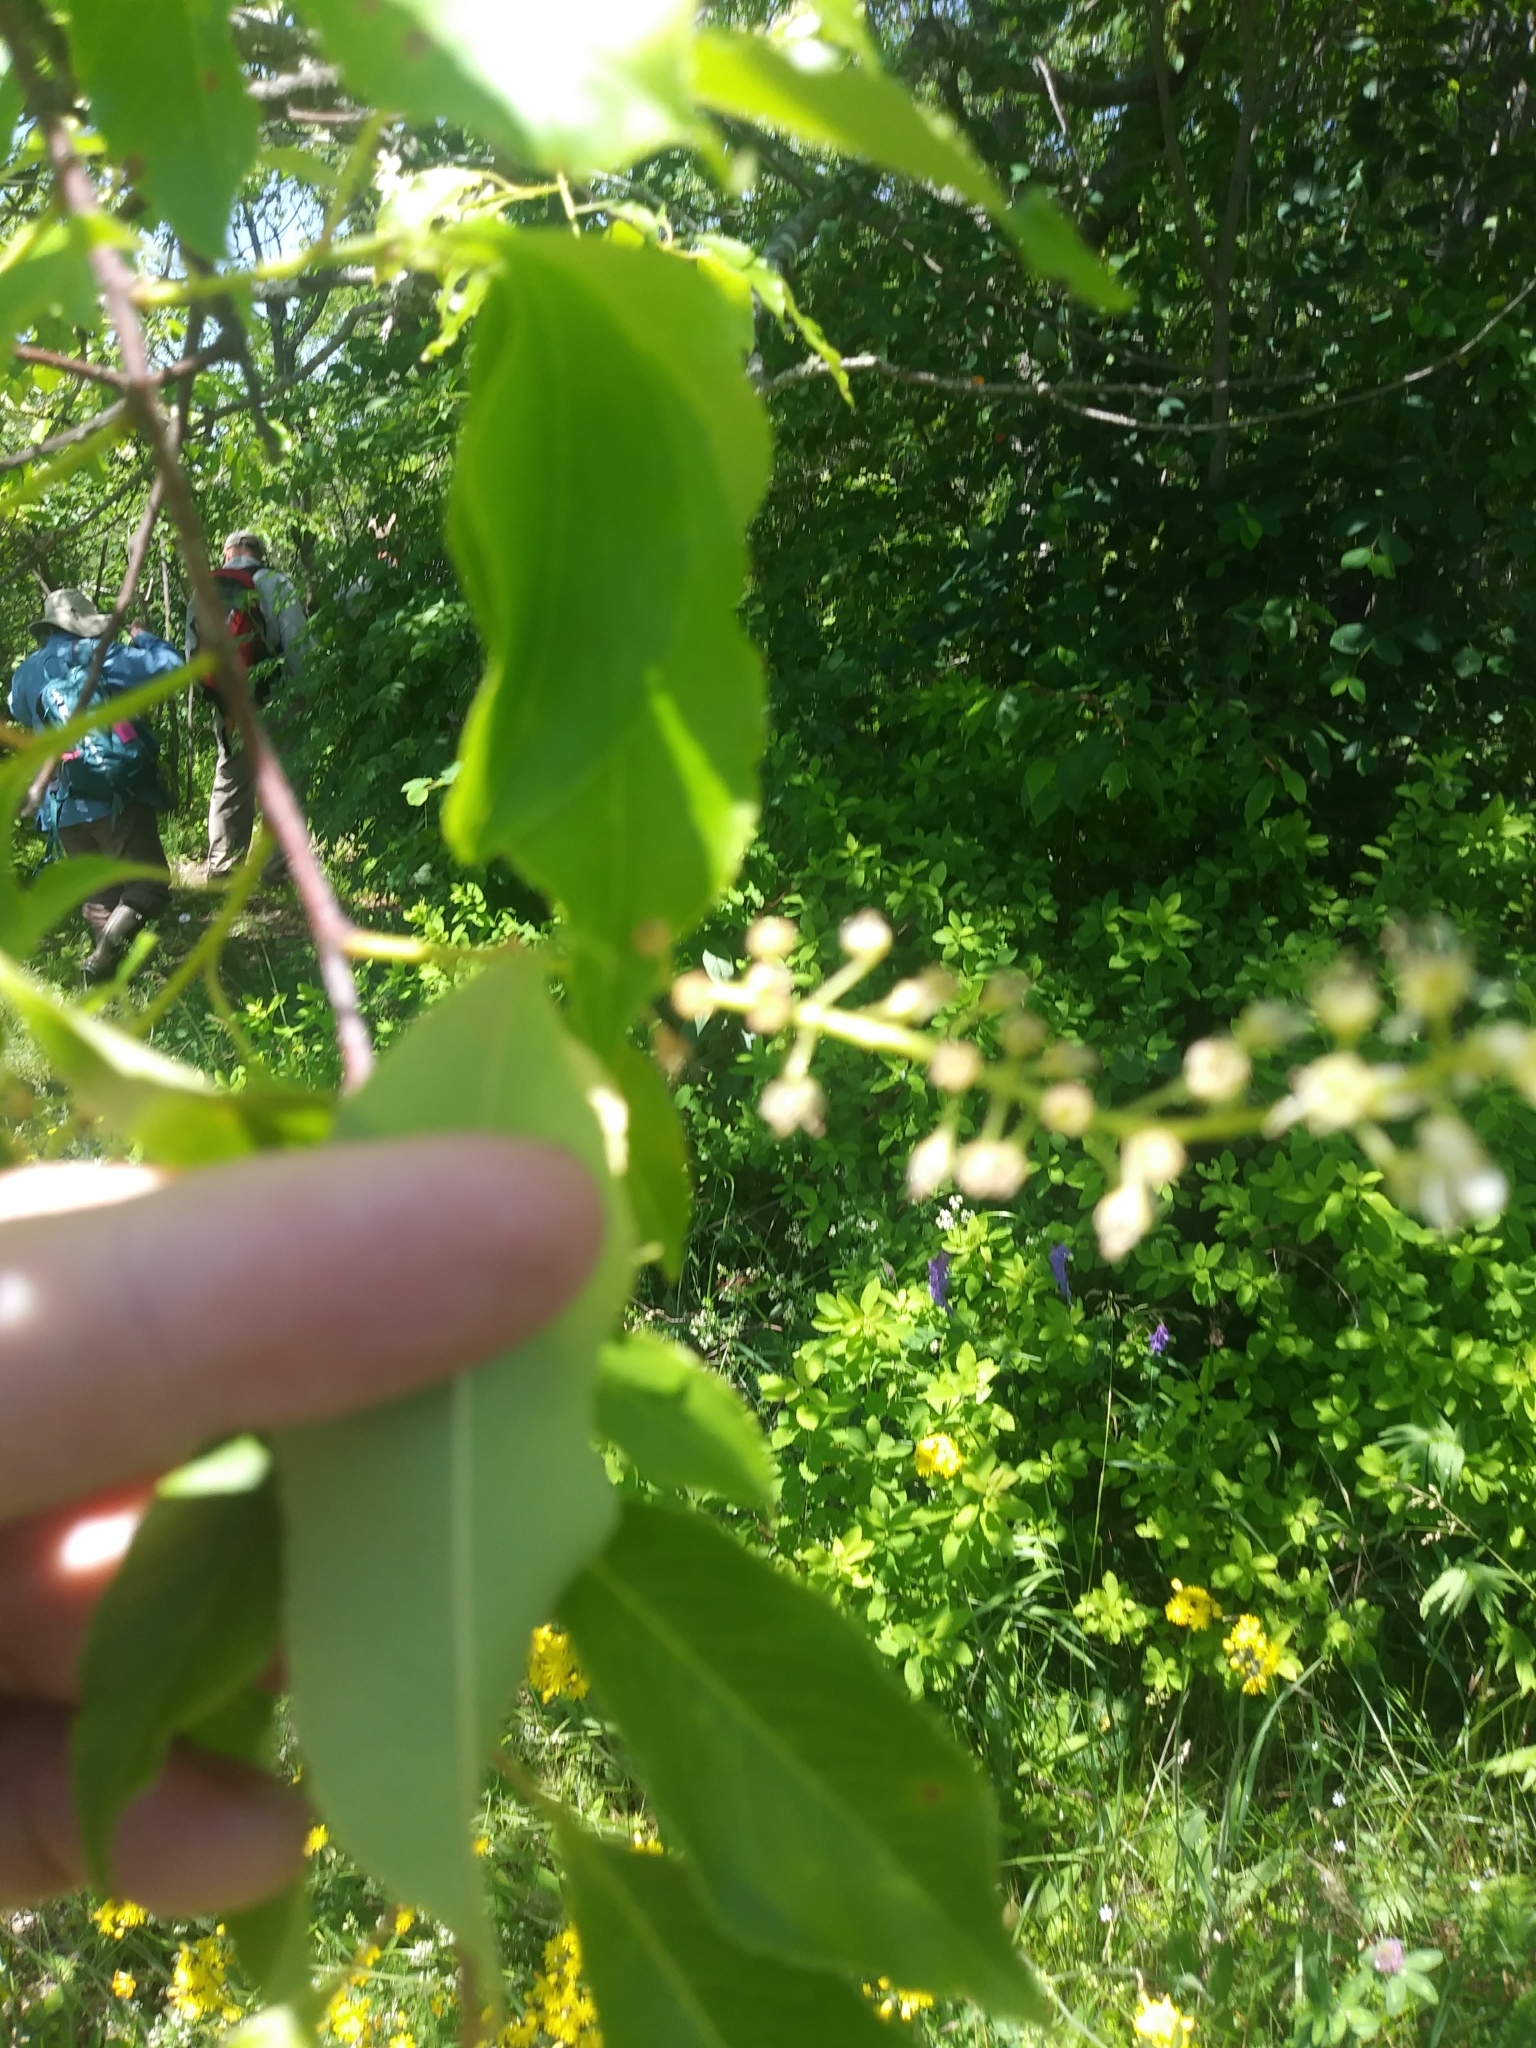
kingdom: Plantae
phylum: Tracheophyta
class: Magnoliopsida
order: Rosales
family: Rosaceae
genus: Prunus
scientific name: Prunus serotina
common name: Black cherry
